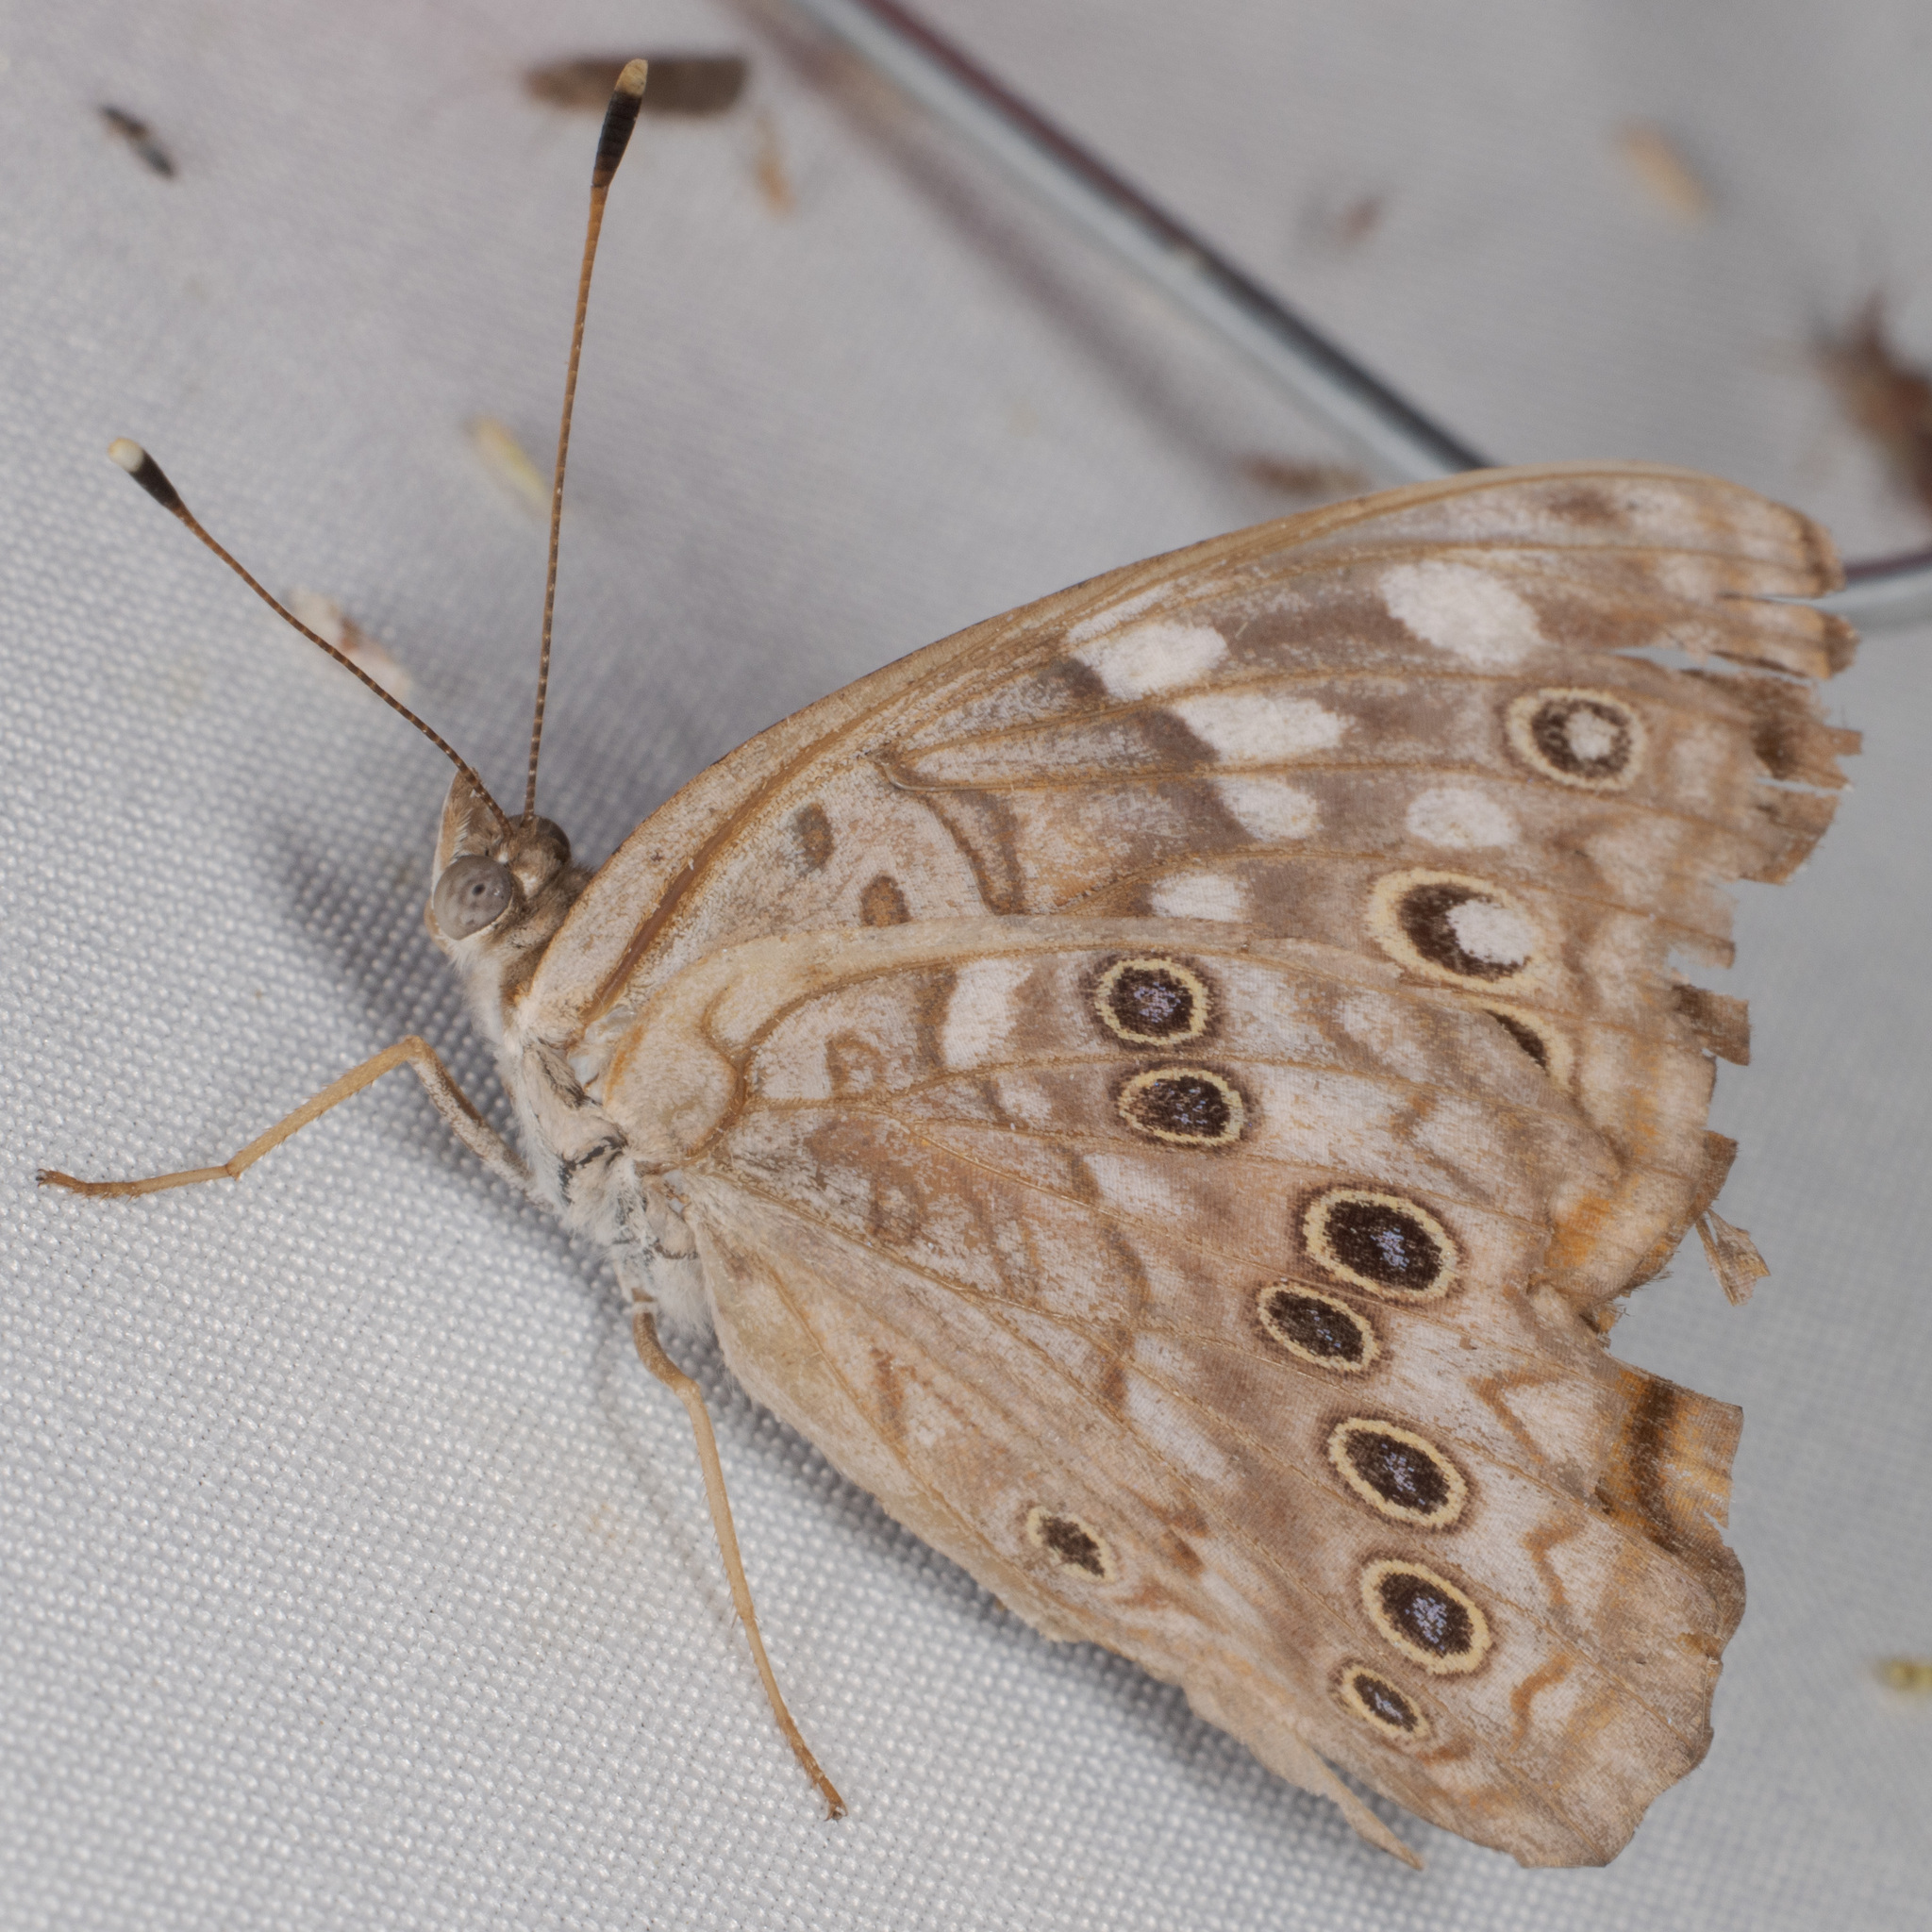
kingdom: Animalia
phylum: Arthropoda
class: Insecta
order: Lepidoptera
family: Nymphalidae
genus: Asterocampa
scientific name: Asterocampa celtis
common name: Hackberry emperor
